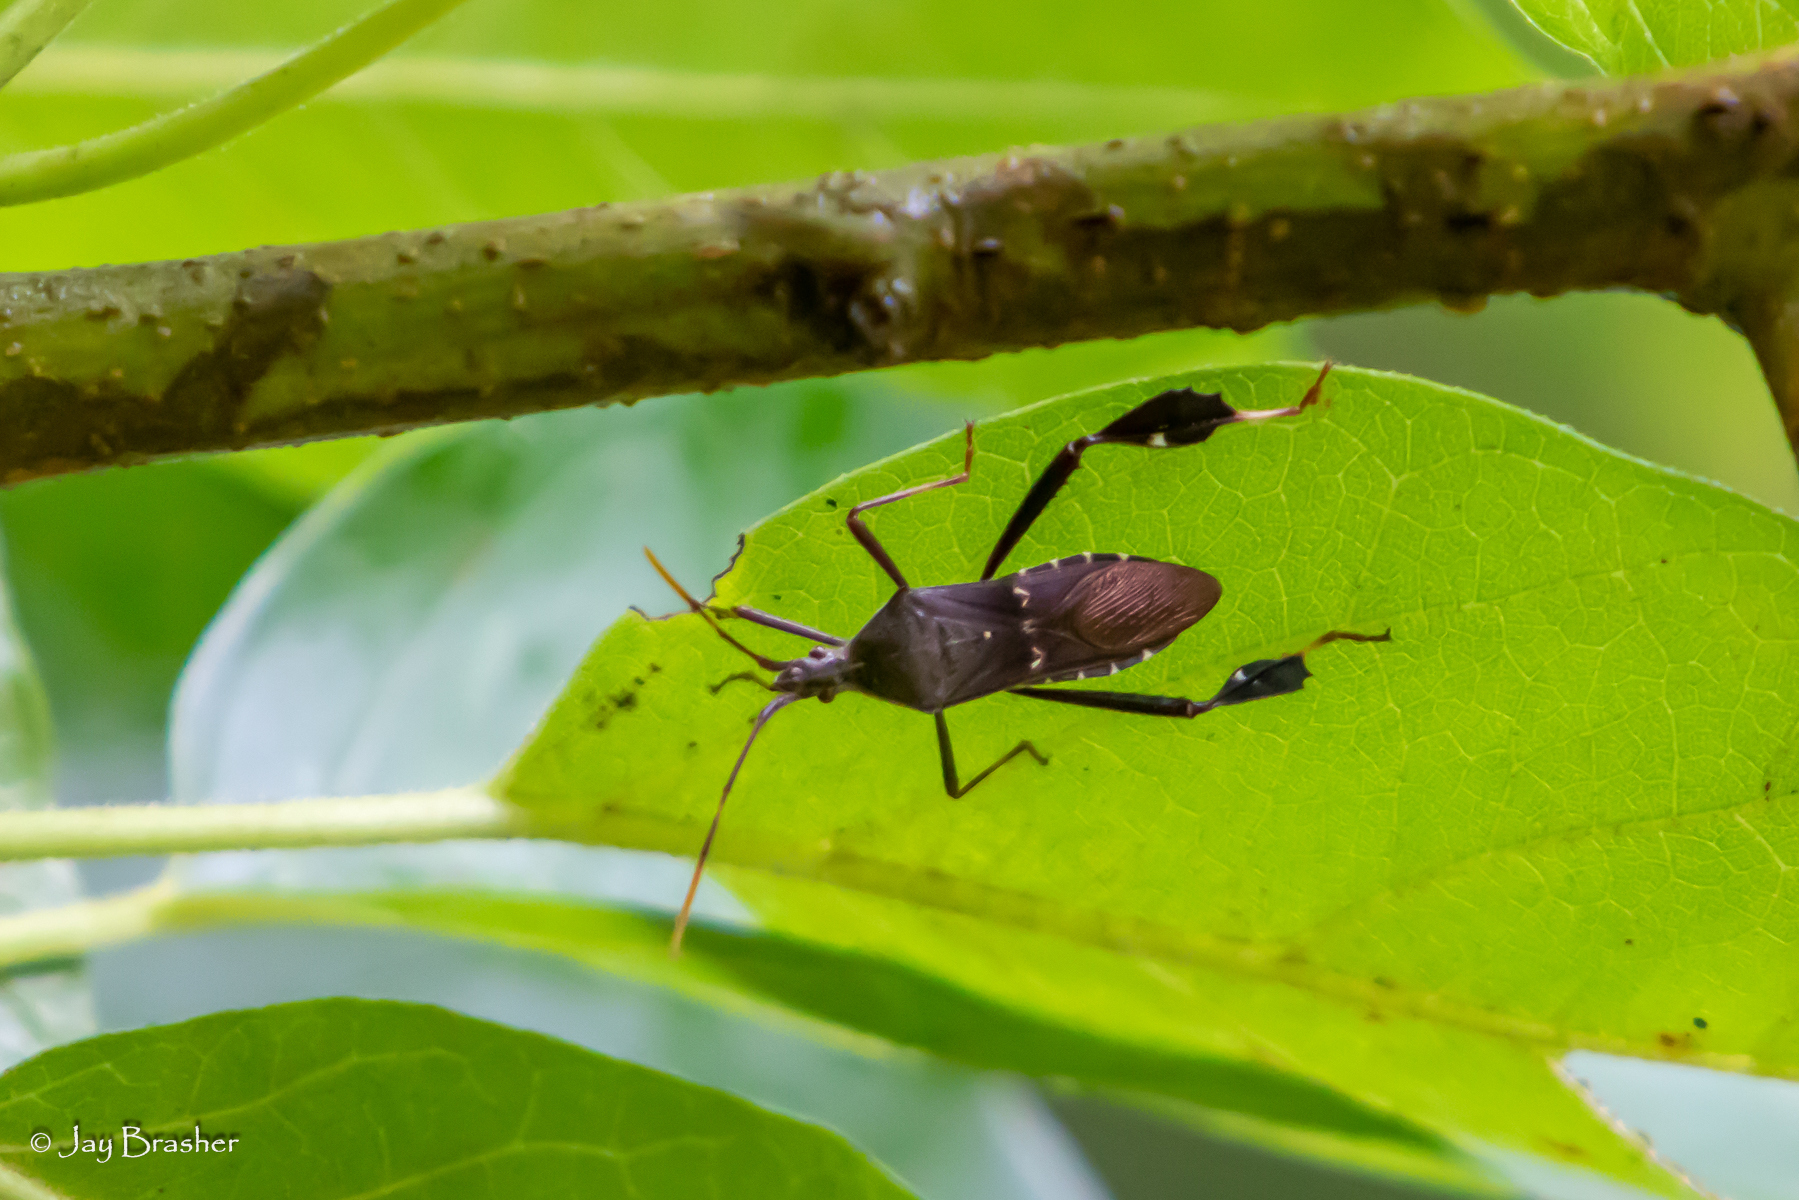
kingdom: Animalia
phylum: Arthropoda
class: Insecta
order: Hemiptera
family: Coreidae
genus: Leptoglossus
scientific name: Leptoglossus oppositus
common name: Northern leaf-footed bug
